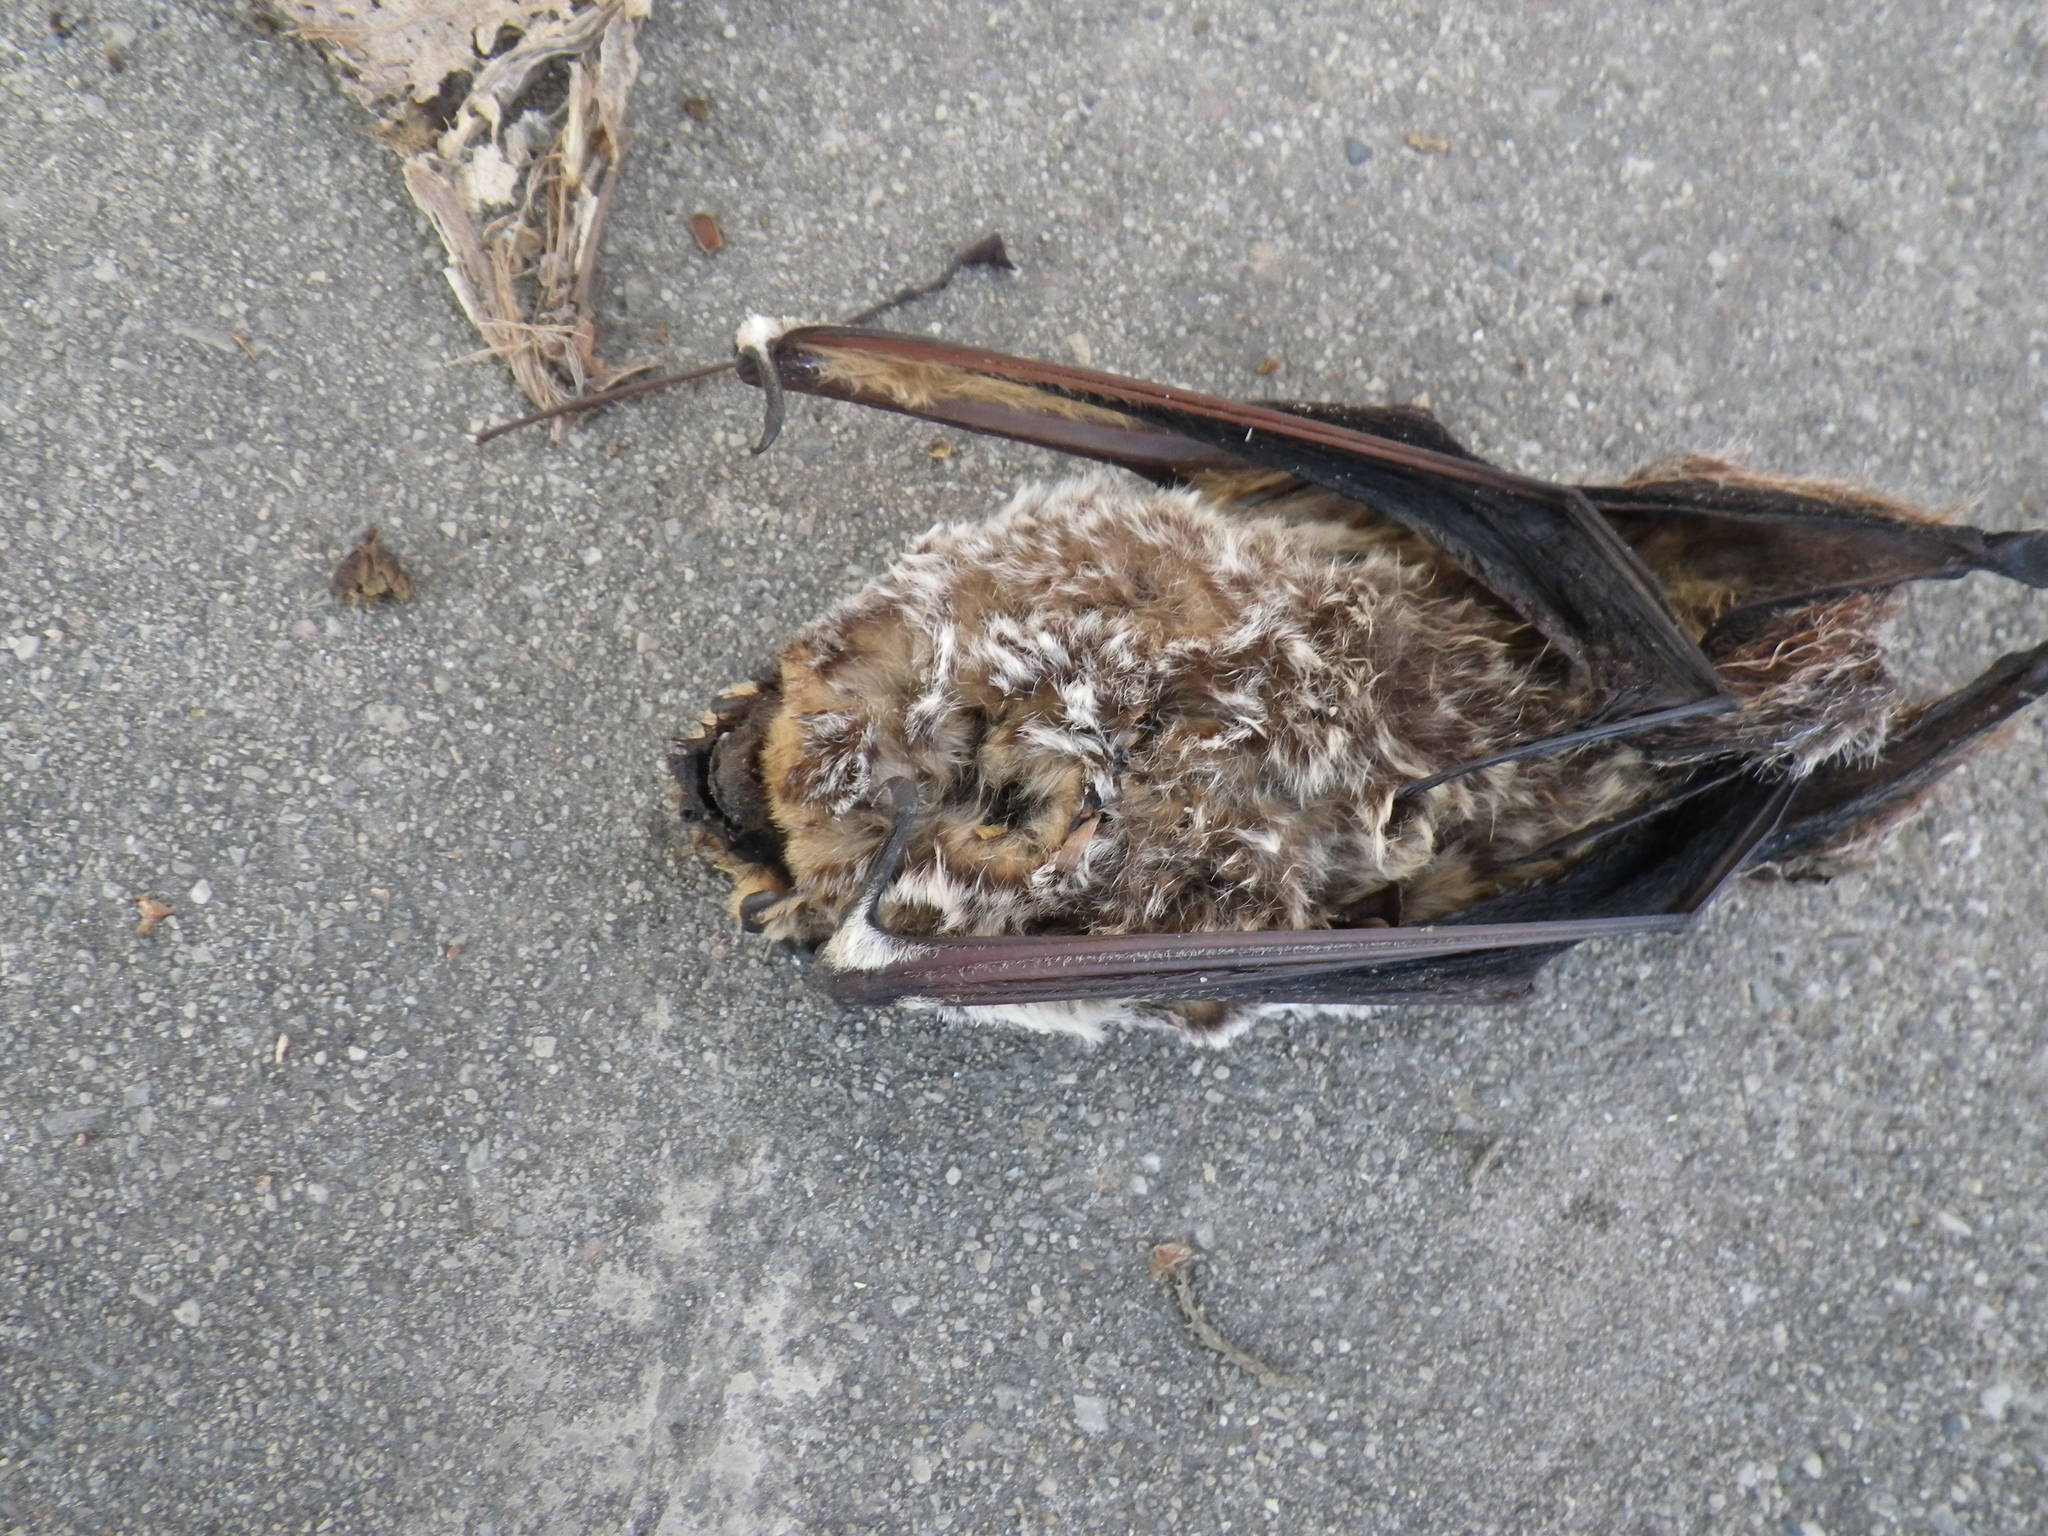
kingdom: Animalia
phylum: Chordata
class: Mammalia
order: Chiroptera
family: Vespertilionidae
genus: Aeorestes
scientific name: Aeorestes cinereus
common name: North american hoary bat
